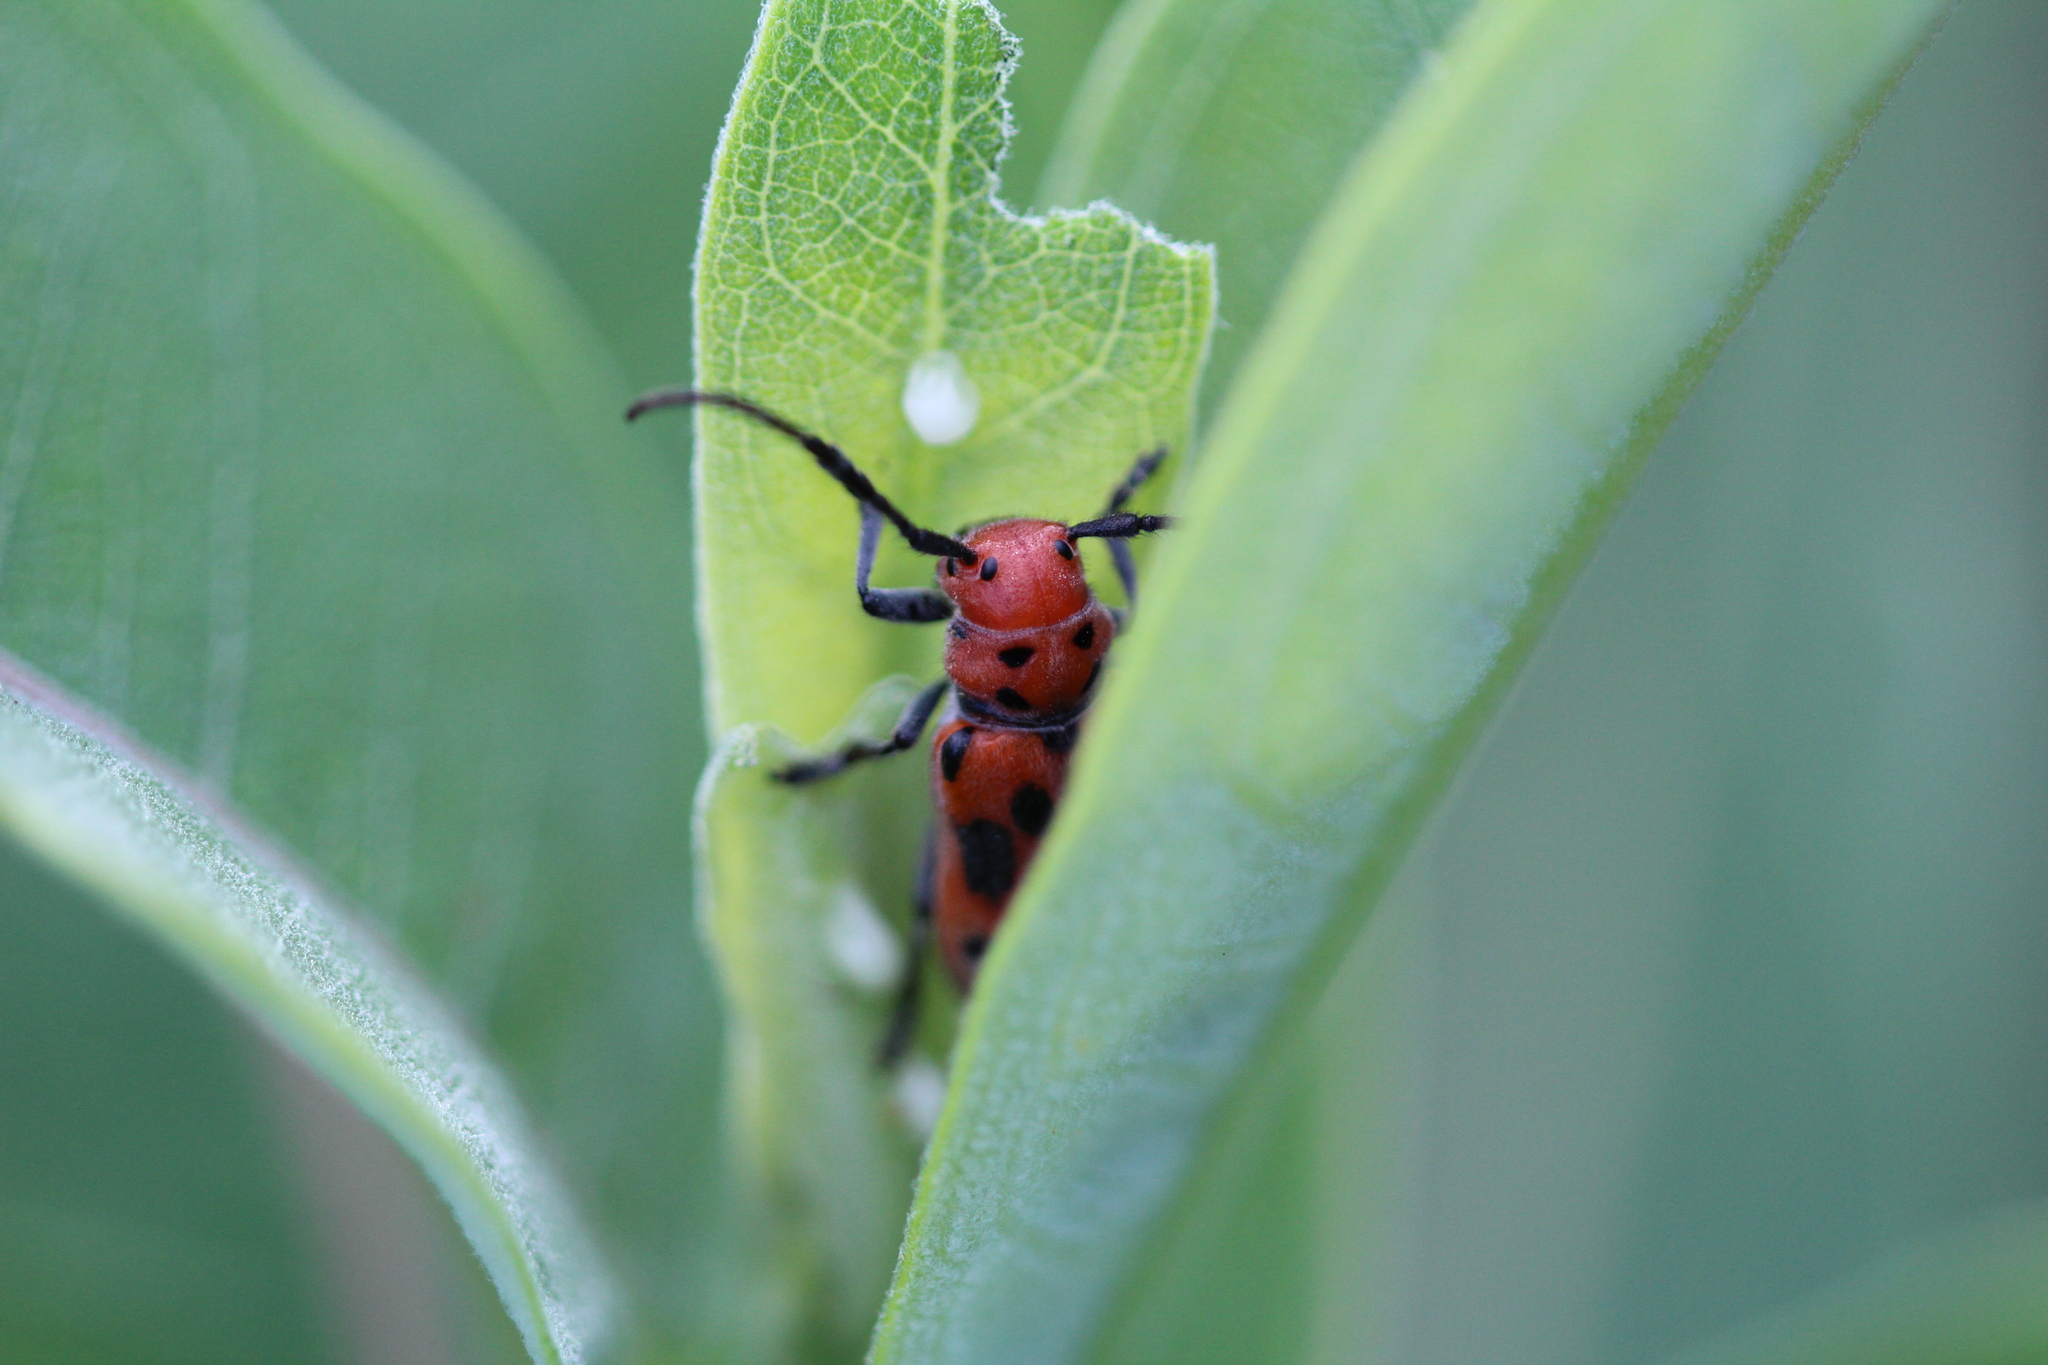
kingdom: Animalia
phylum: Arthropoda
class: Insecta
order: Coleoptera
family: Cerambycidae
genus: Tetraopes
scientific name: Tetraopes tetrophthalmus
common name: Red milkweed beetle
